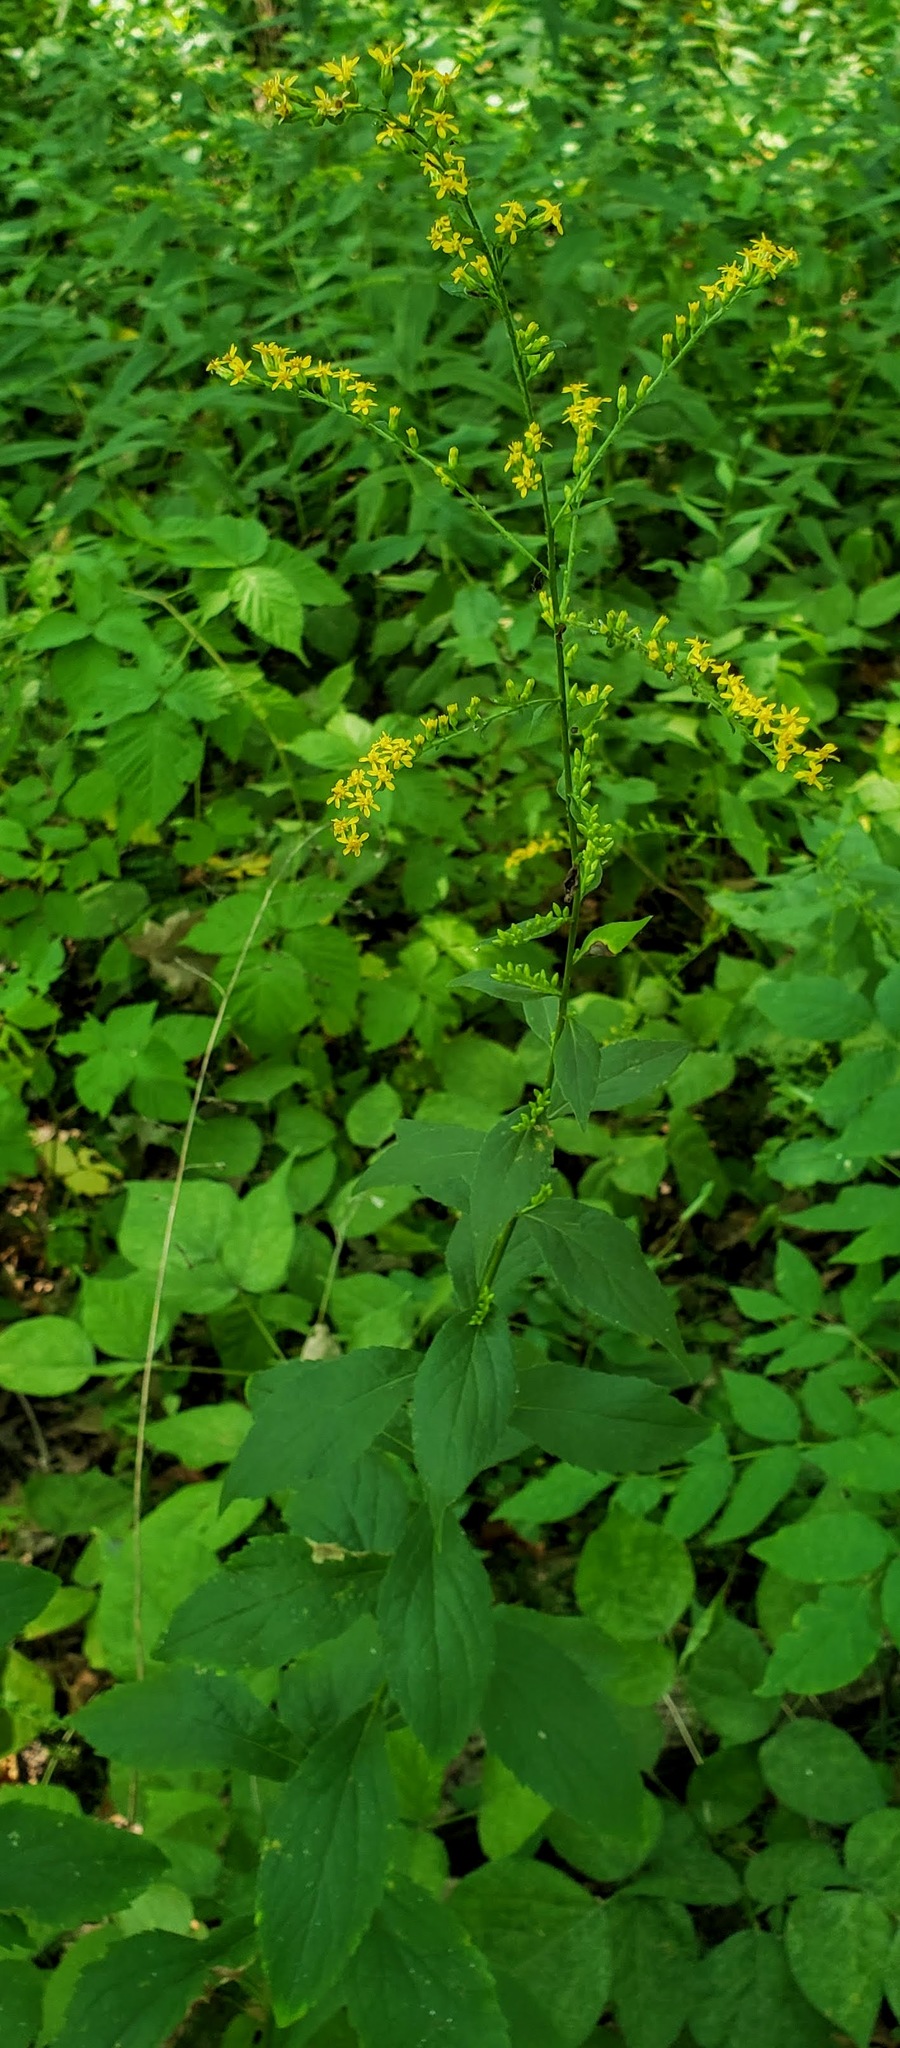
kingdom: Plantae
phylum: Tracheophyta
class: Magnoliopsida
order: Asterales
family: Asteraceae
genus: Solidago
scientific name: Solidago ulmifolia
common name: Elm-leaf goldenrod
